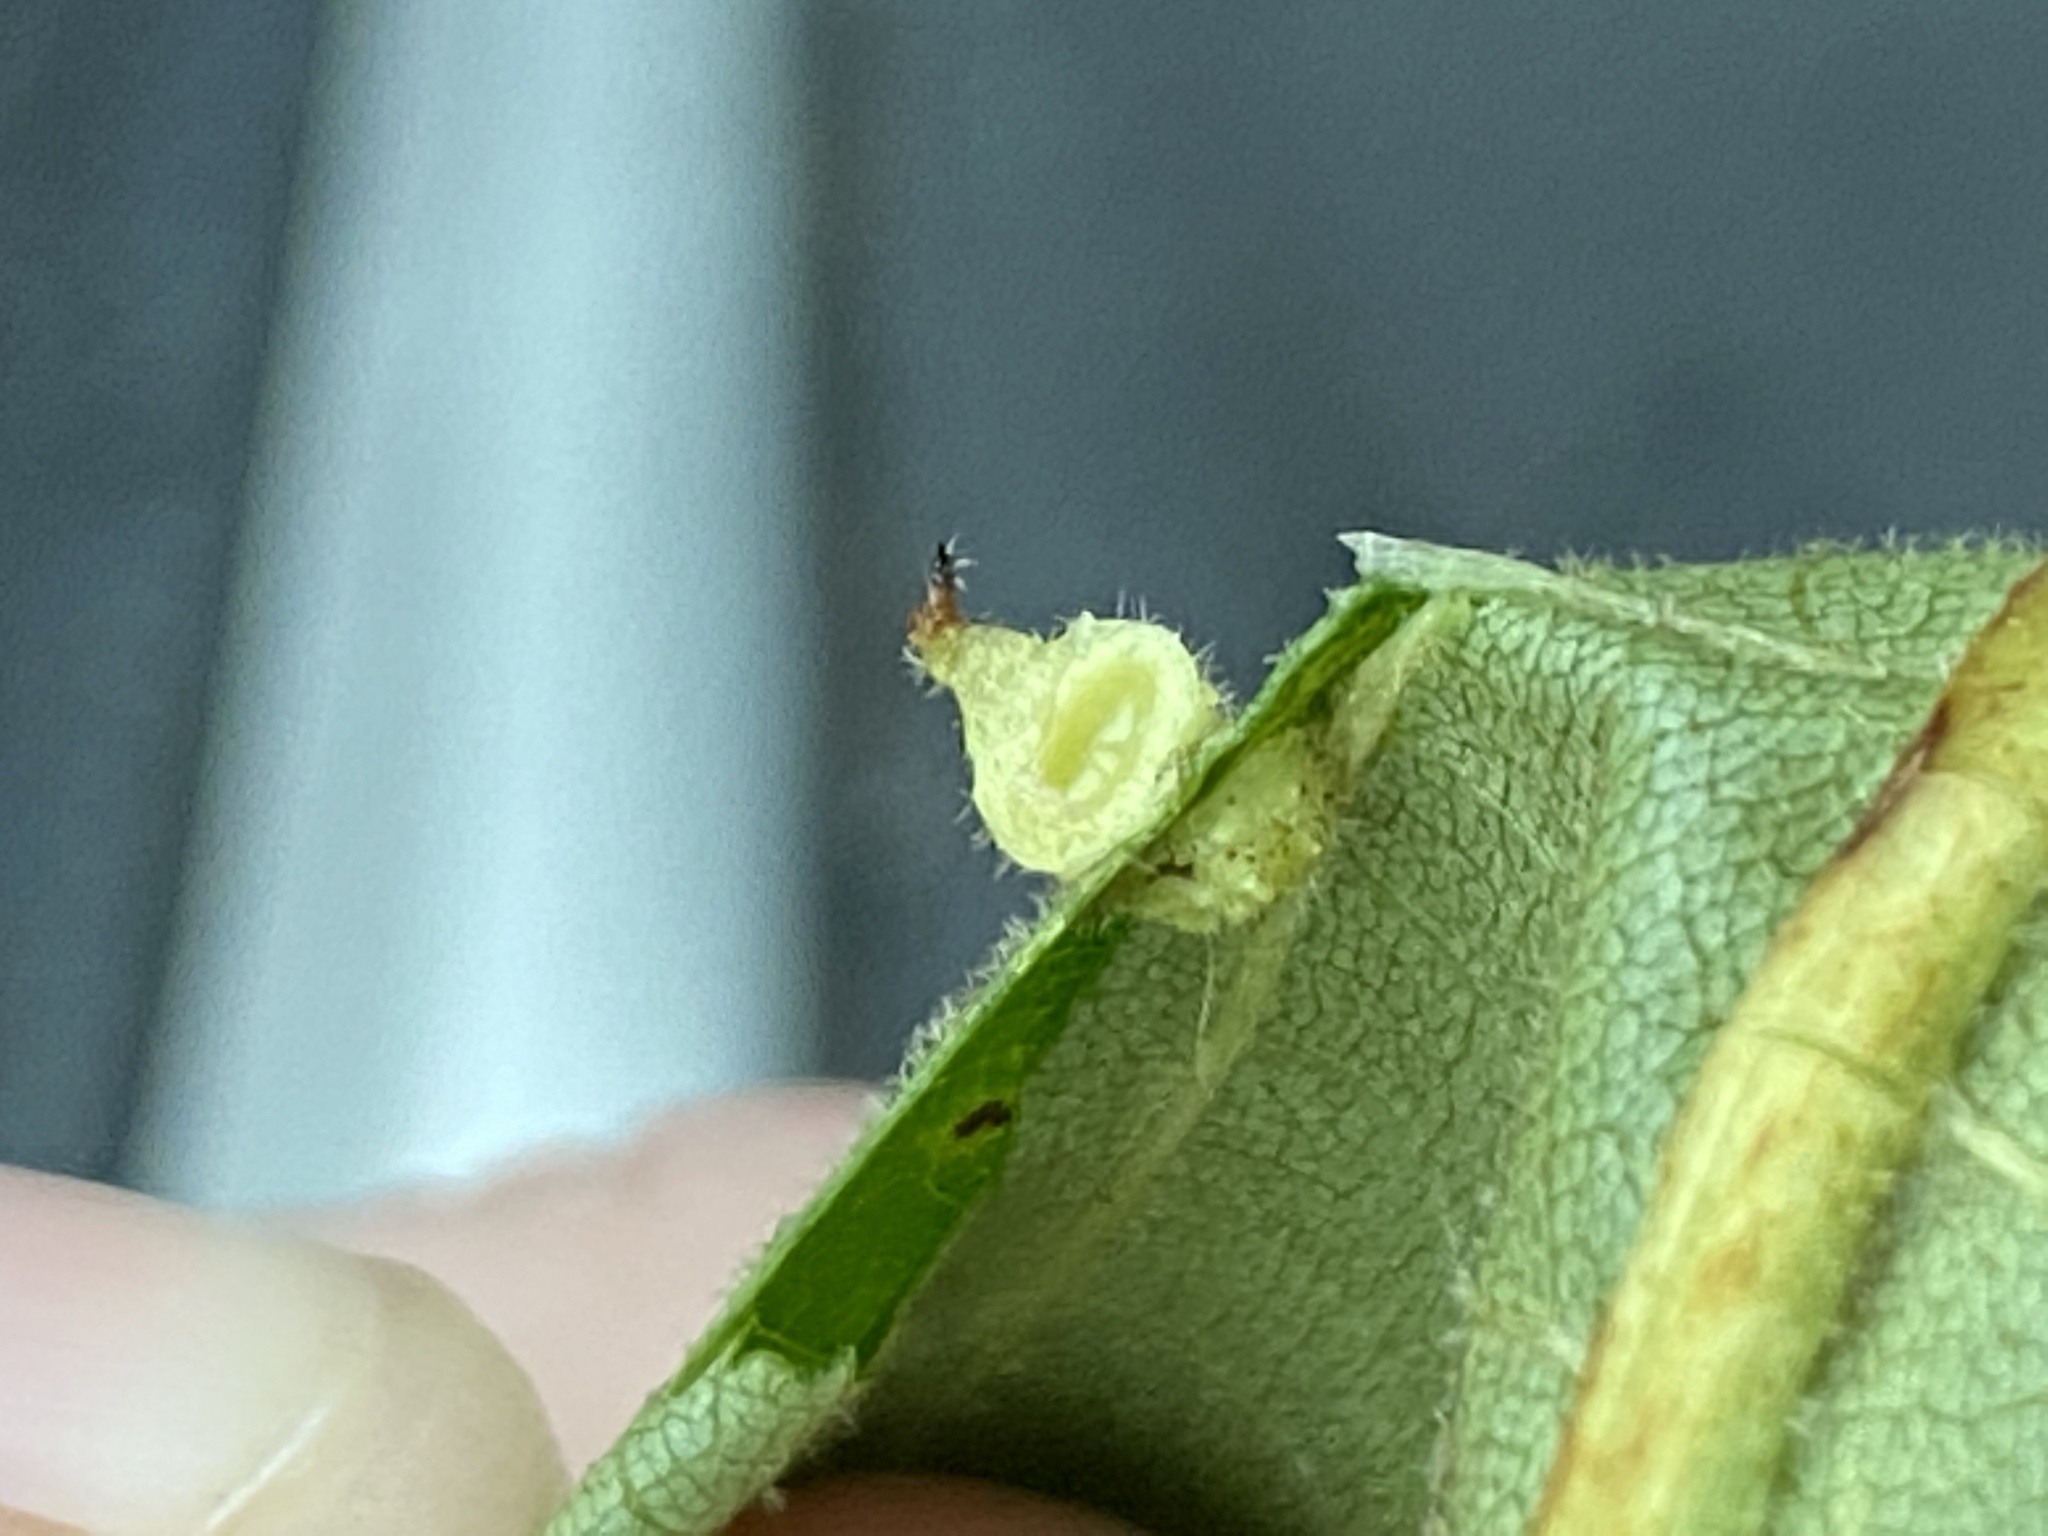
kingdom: Animalia
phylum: Arthropoda
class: Insecta
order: Diptera
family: Cecidomyiidae
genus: Caryomyia
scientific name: Caryomyia cucurbitata
